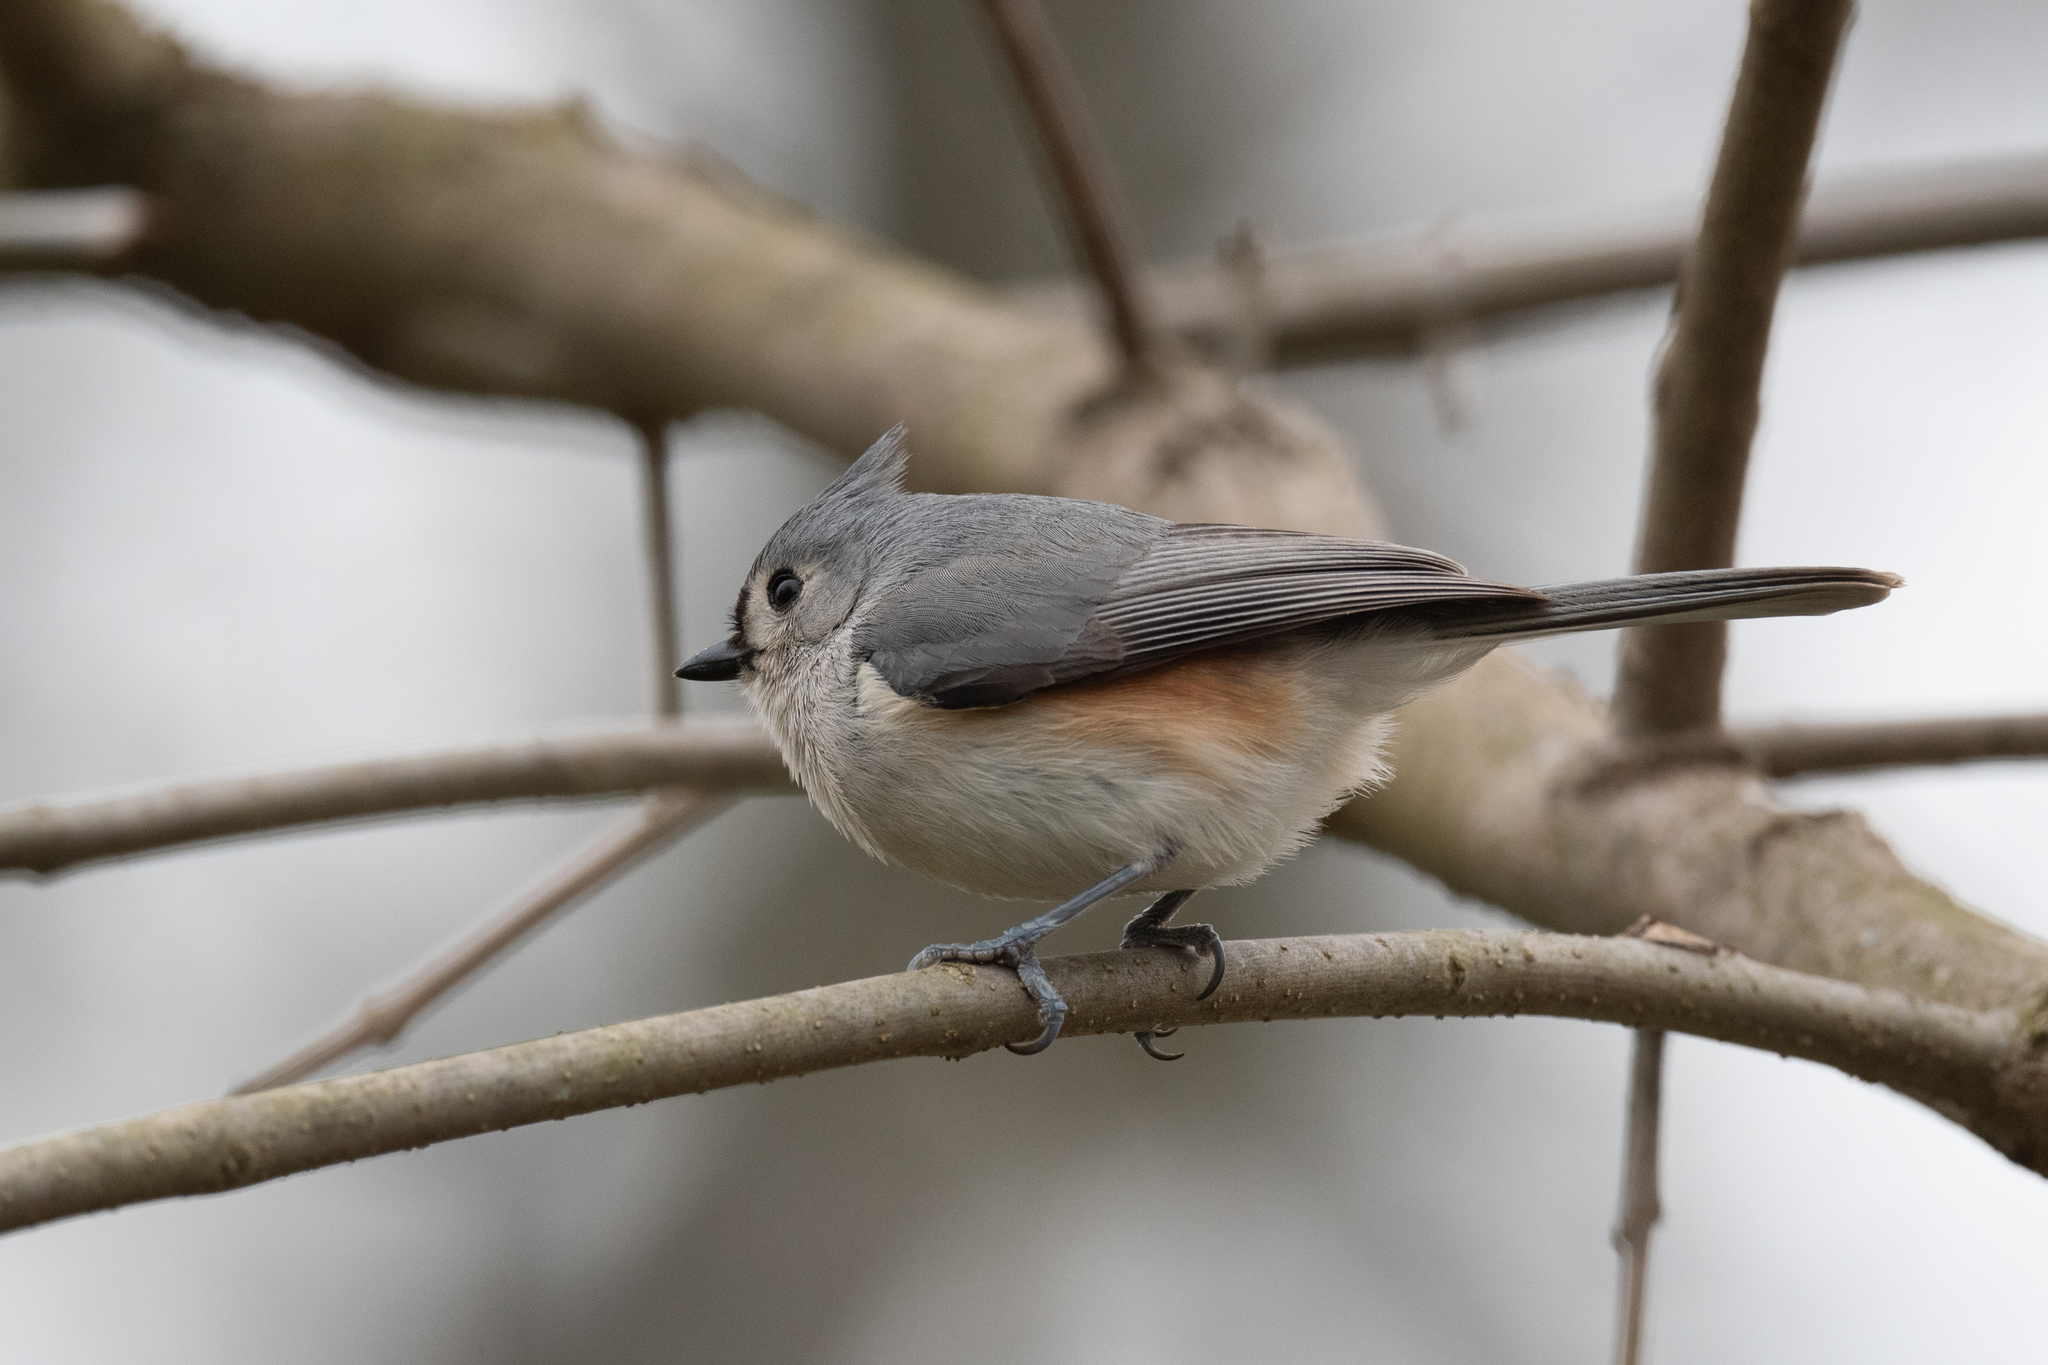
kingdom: Animalia
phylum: Chordata
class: Aves
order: Passeriformes
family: Paridae
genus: Baeolophus
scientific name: Baeolophus bicolor
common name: Tufted titmouse
